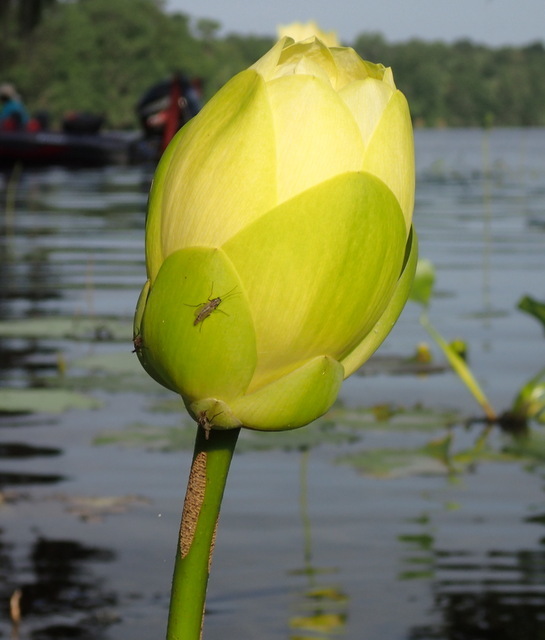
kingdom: Plantae
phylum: Tracheophyta
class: Magnoliopsida
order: Proteales
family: Nelumbonaceae
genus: Nelumbo
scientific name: Nelumbo lutea
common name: American lotus
